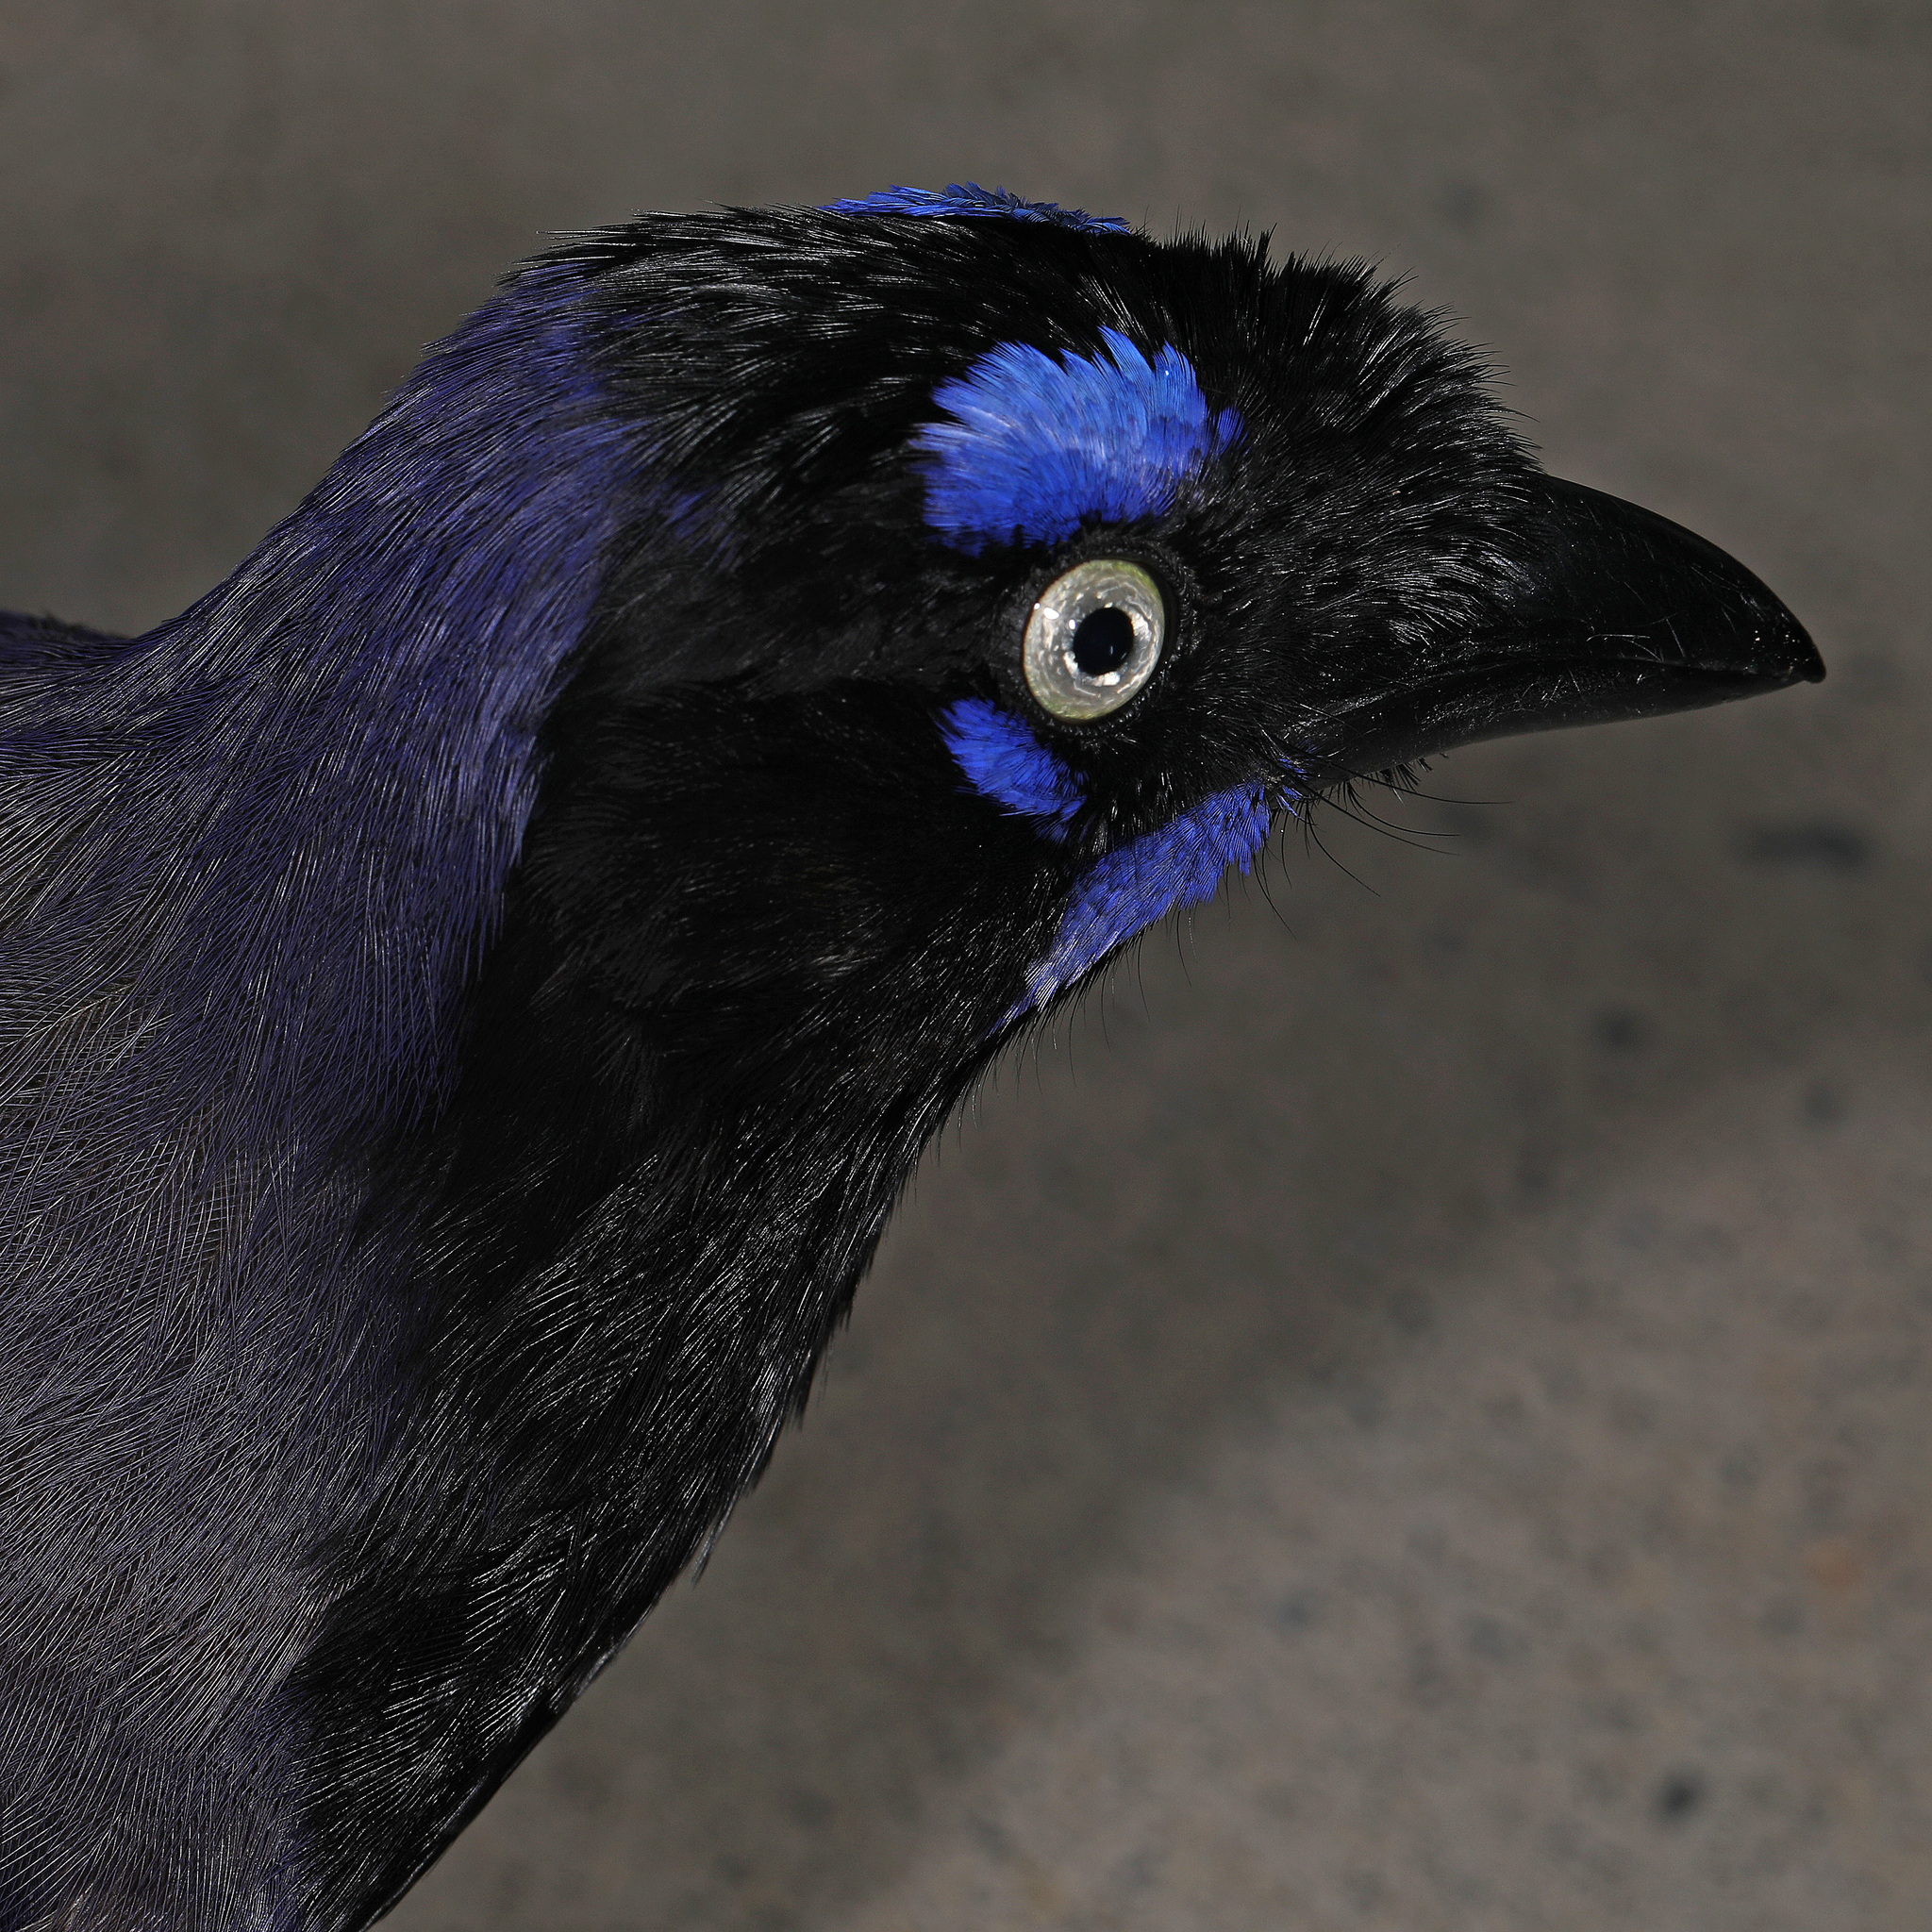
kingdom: Animalia
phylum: Chordata
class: Aves
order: Passeriformes
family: Corvidae
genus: Cyanocorax
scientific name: Cyanocorax affinis
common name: Black-chested jay
